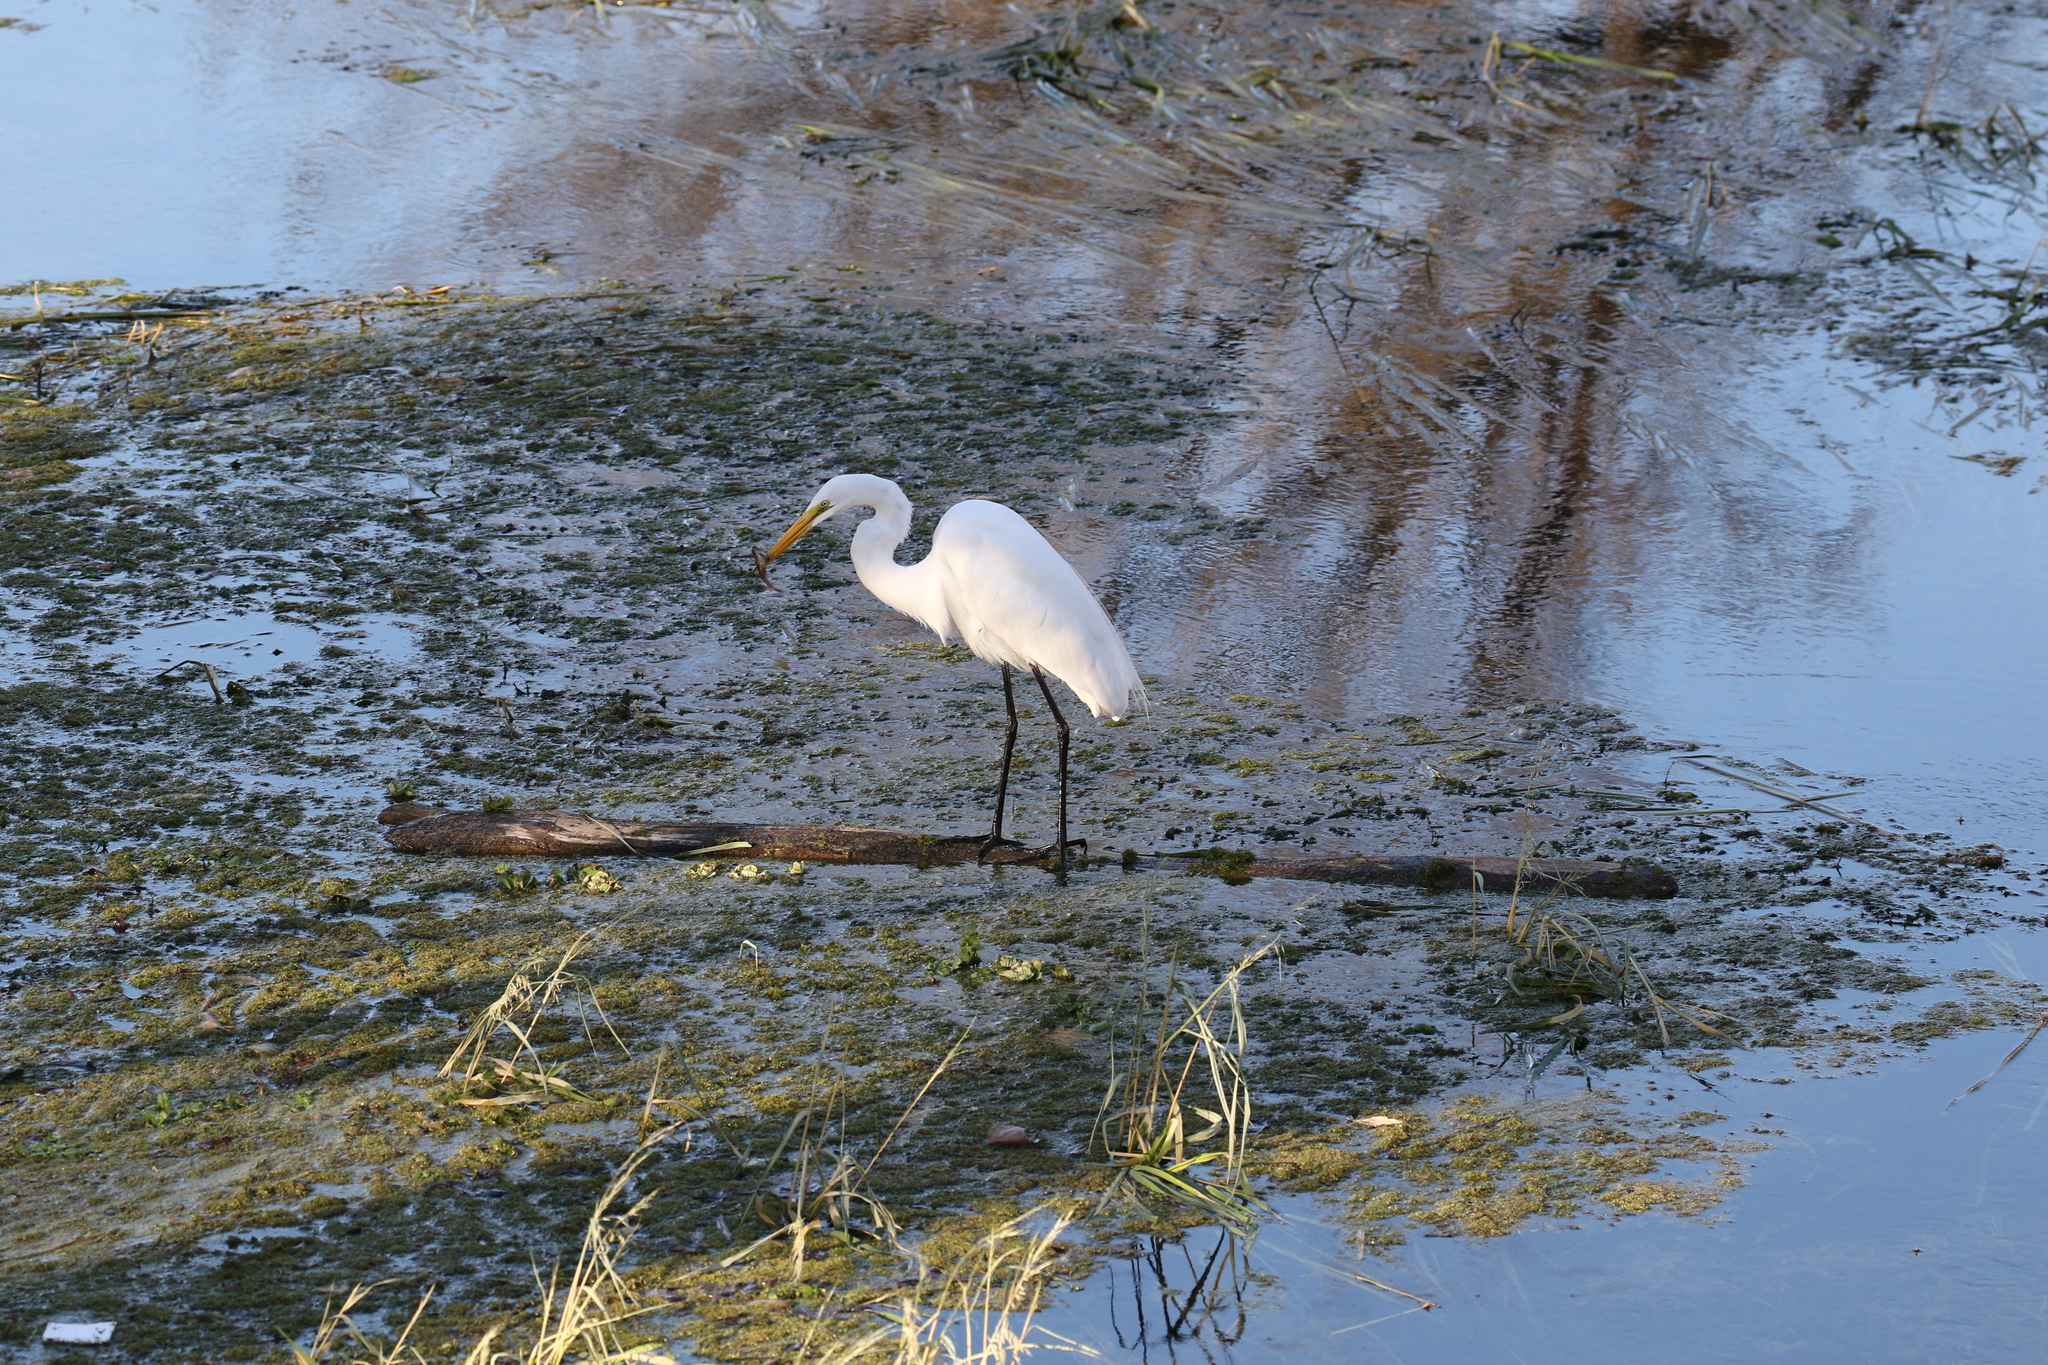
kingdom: Animalia
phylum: Chordata
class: Aves
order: Pelecaniformes
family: Ardeidae
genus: Ardea
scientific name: Ardea alba
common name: Great egret
